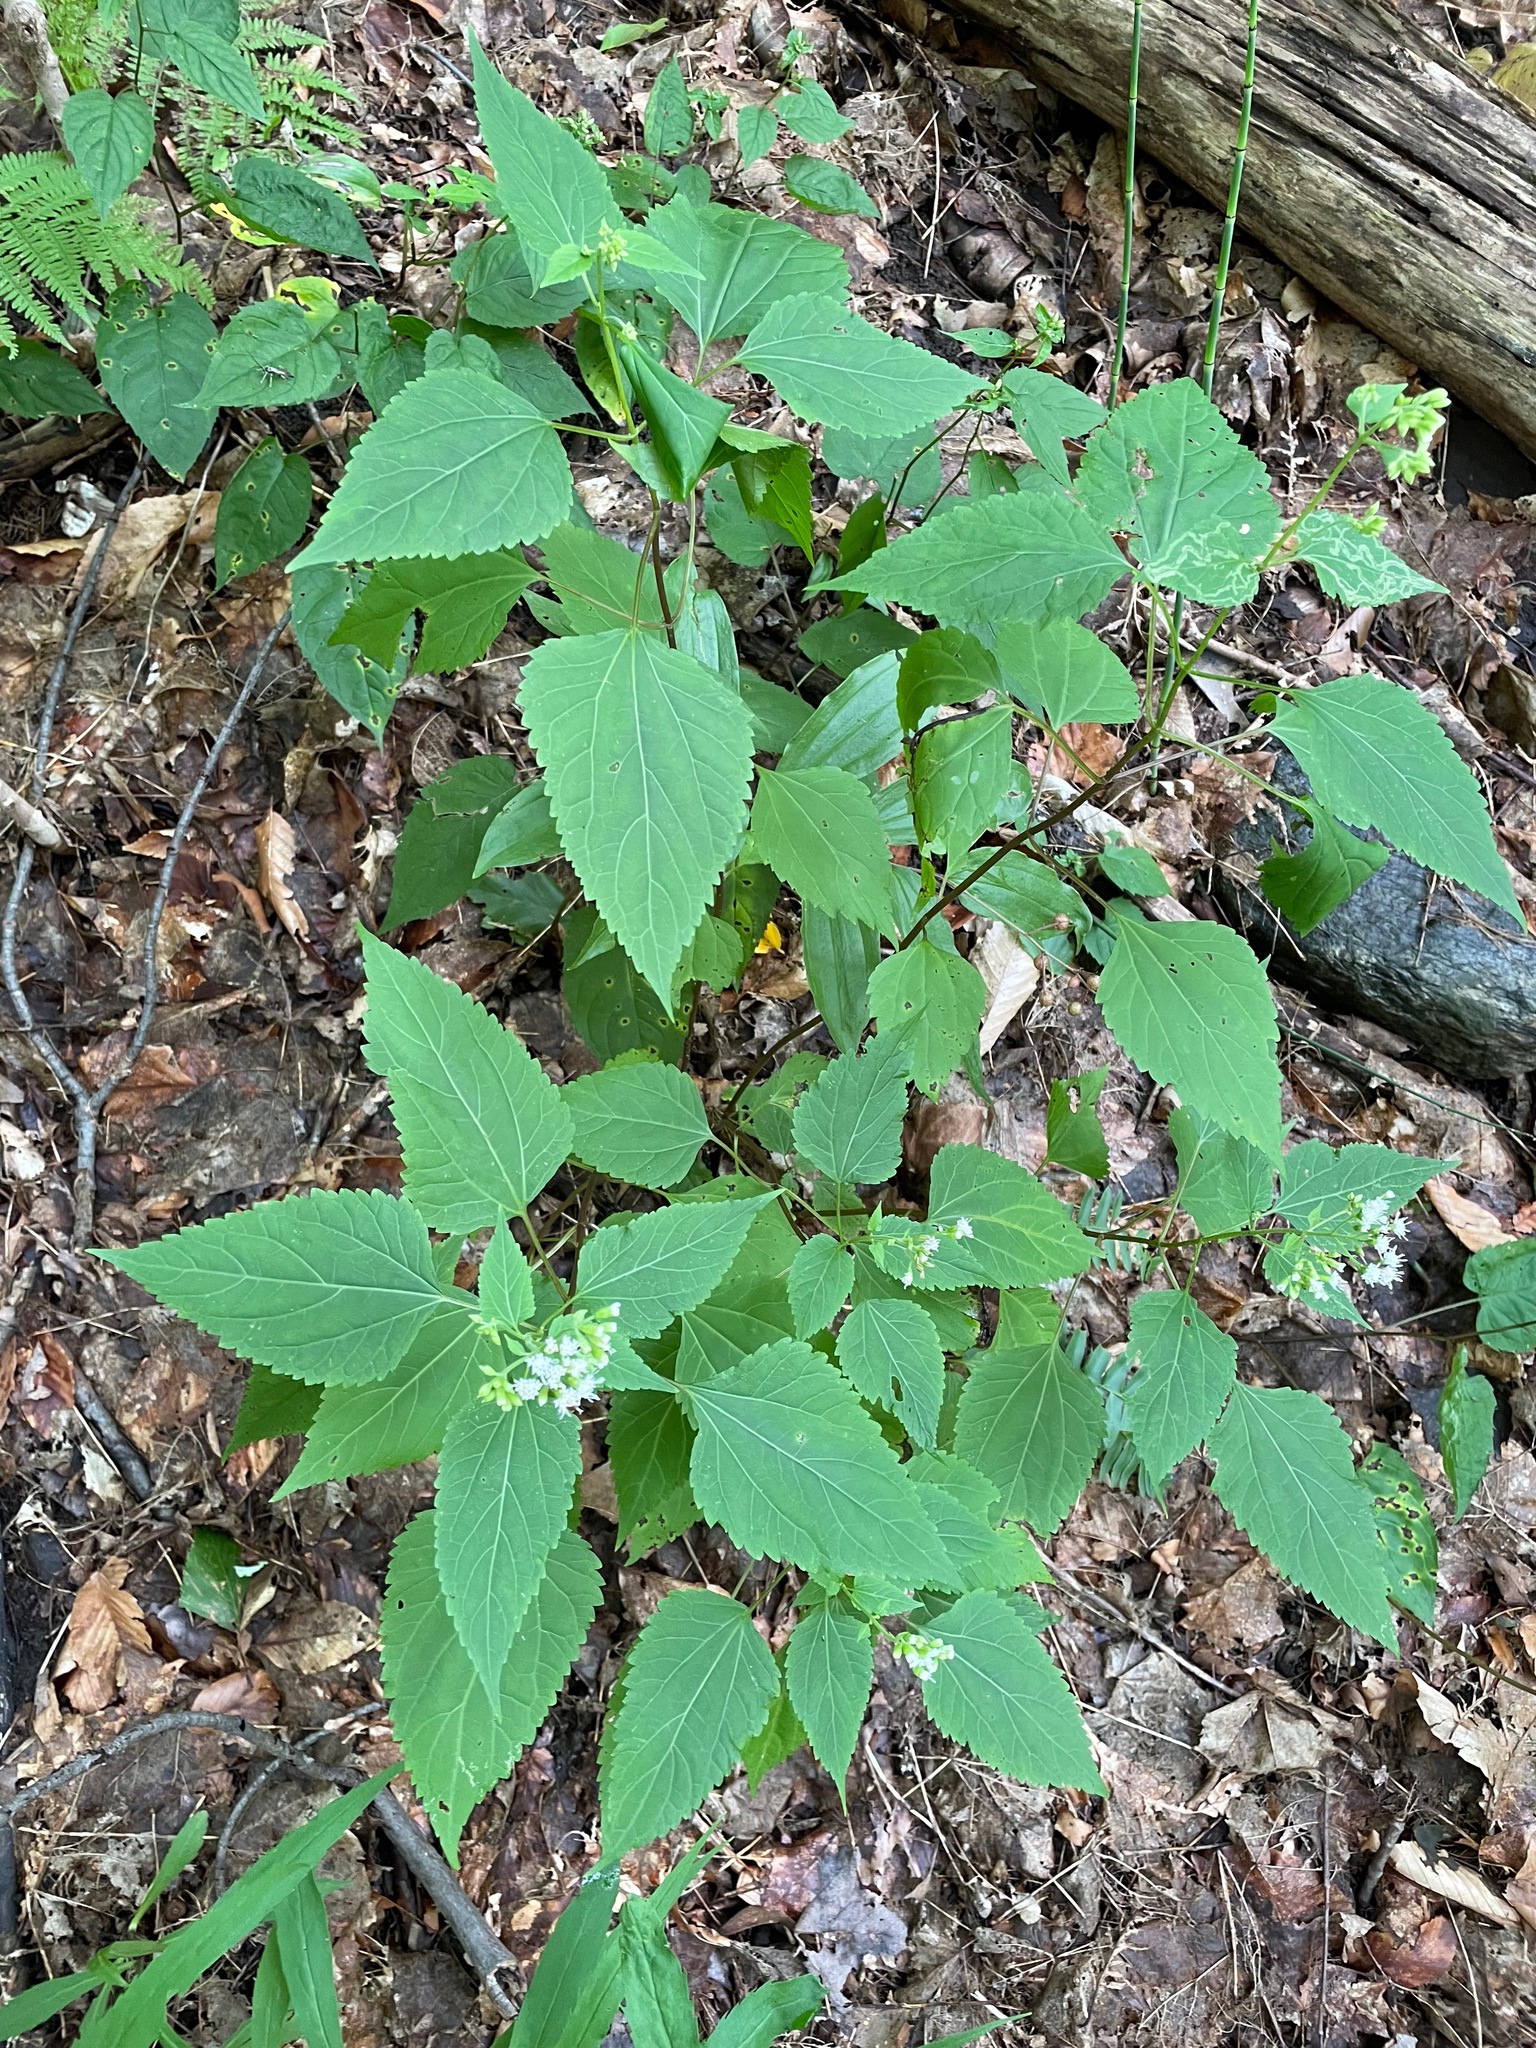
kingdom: Plantae
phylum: Tracheophyta
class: Magnoliopsida
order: Asterales
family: Asteraceae
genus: Ageratina
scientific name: Ageratina altissima
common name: White snakeroot
